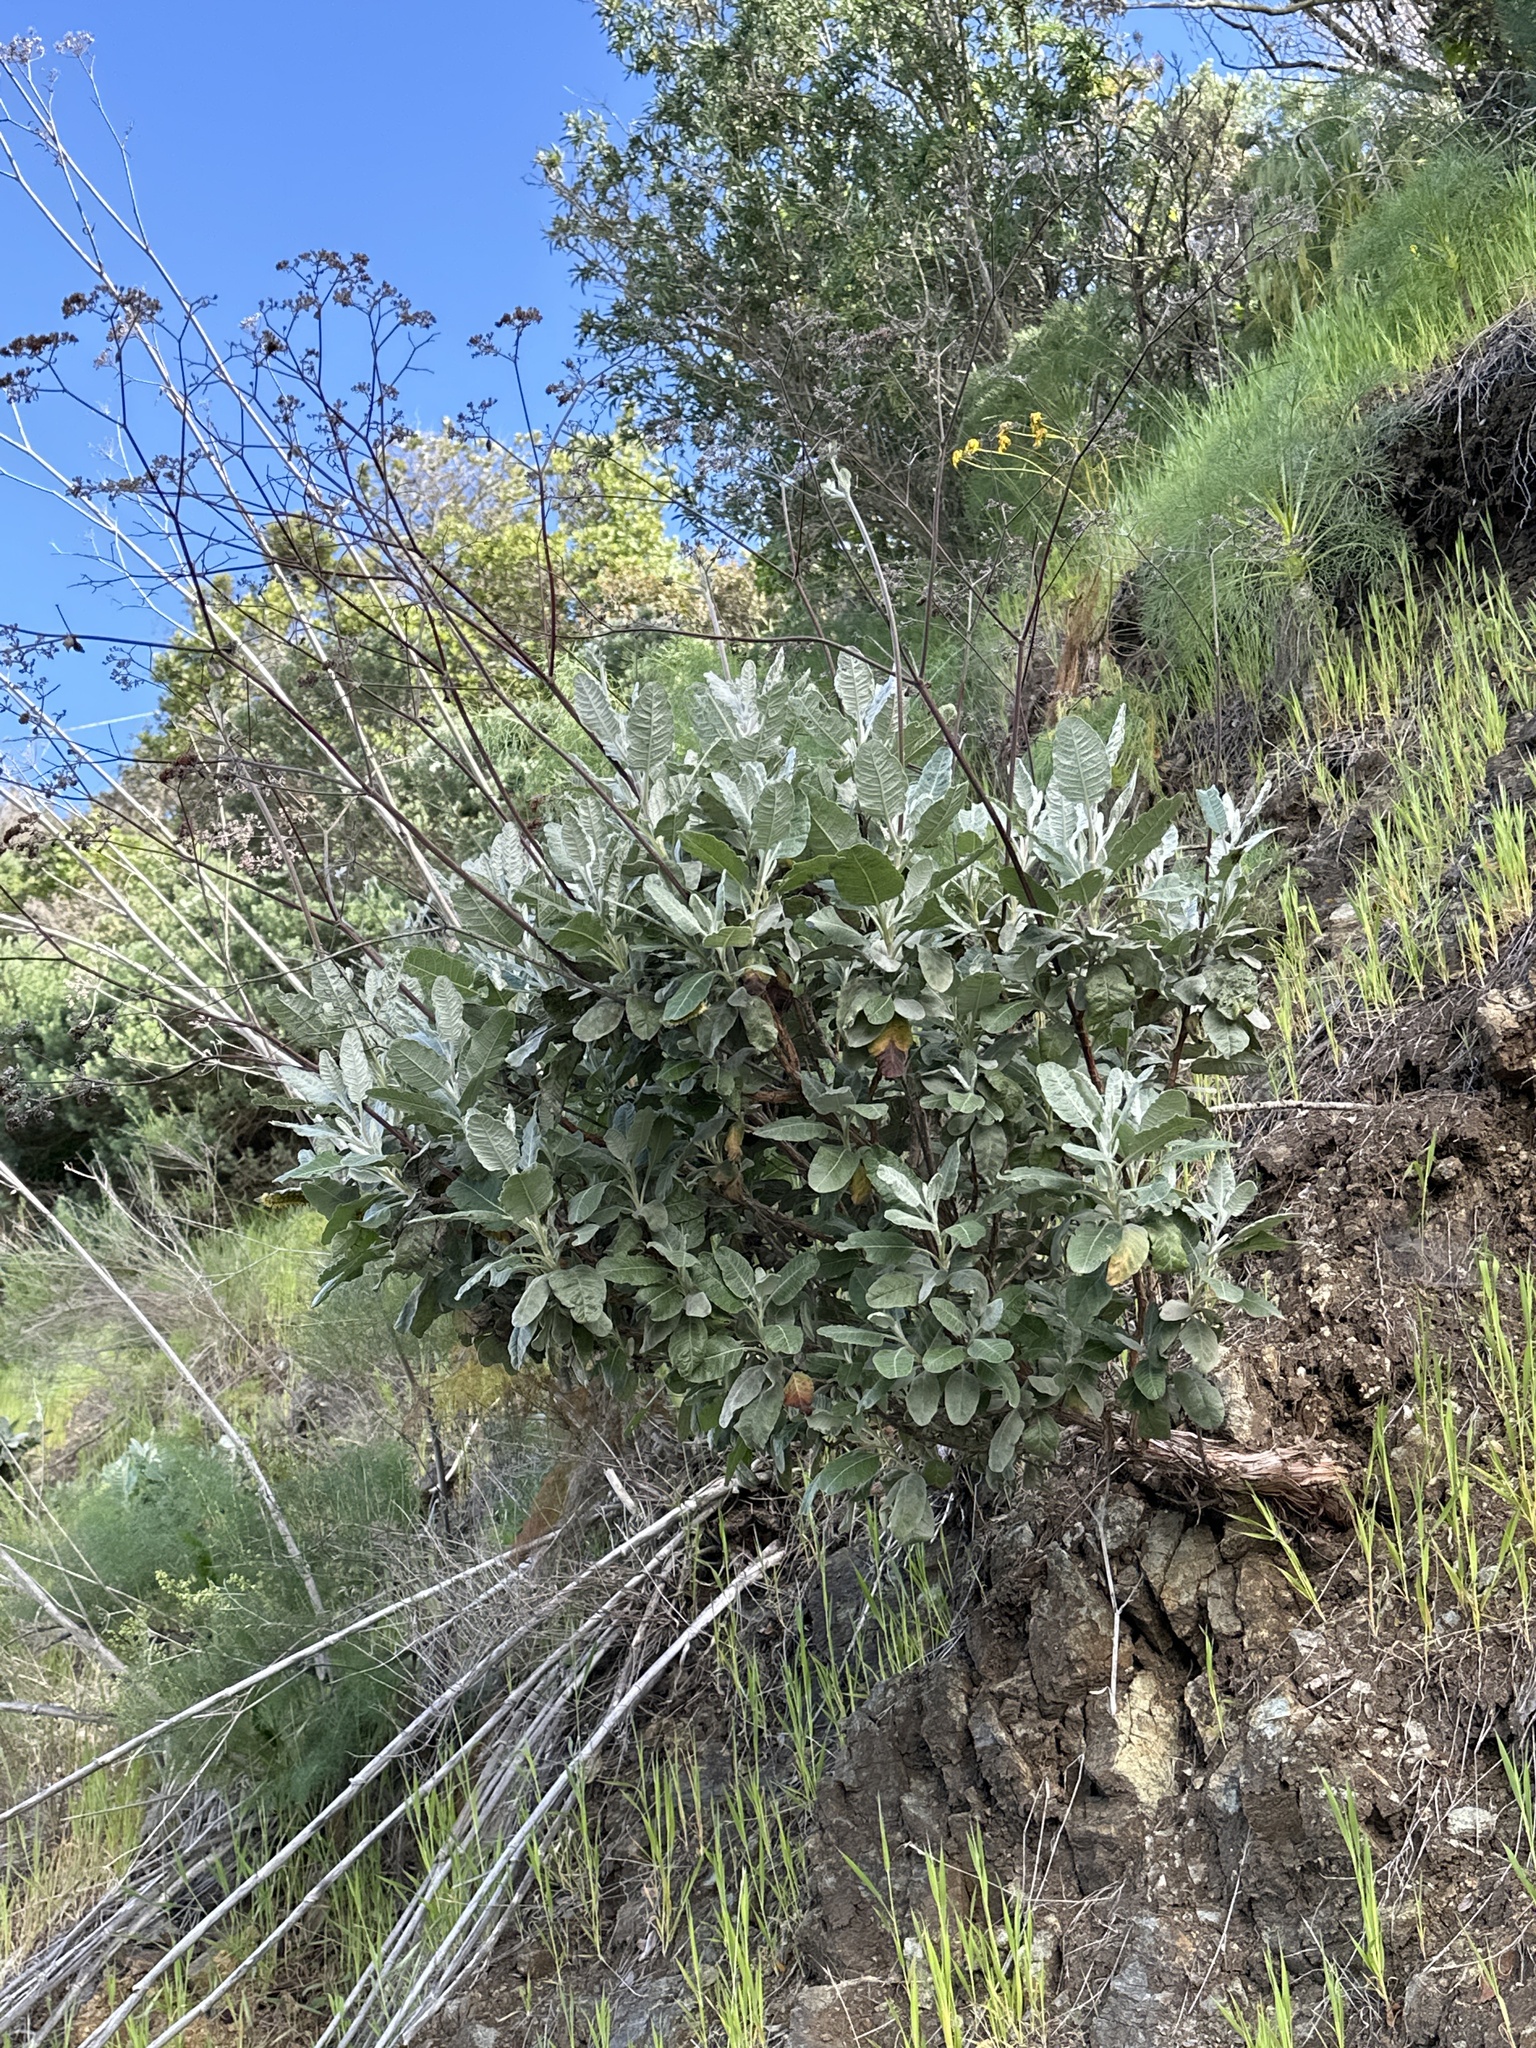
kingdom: Plantae
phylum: Tracheophyta
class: Magnoliopsida
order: Caryophyllales
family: Polygonaceae
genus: Eriogonum
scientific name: Eriogonum giganteum
